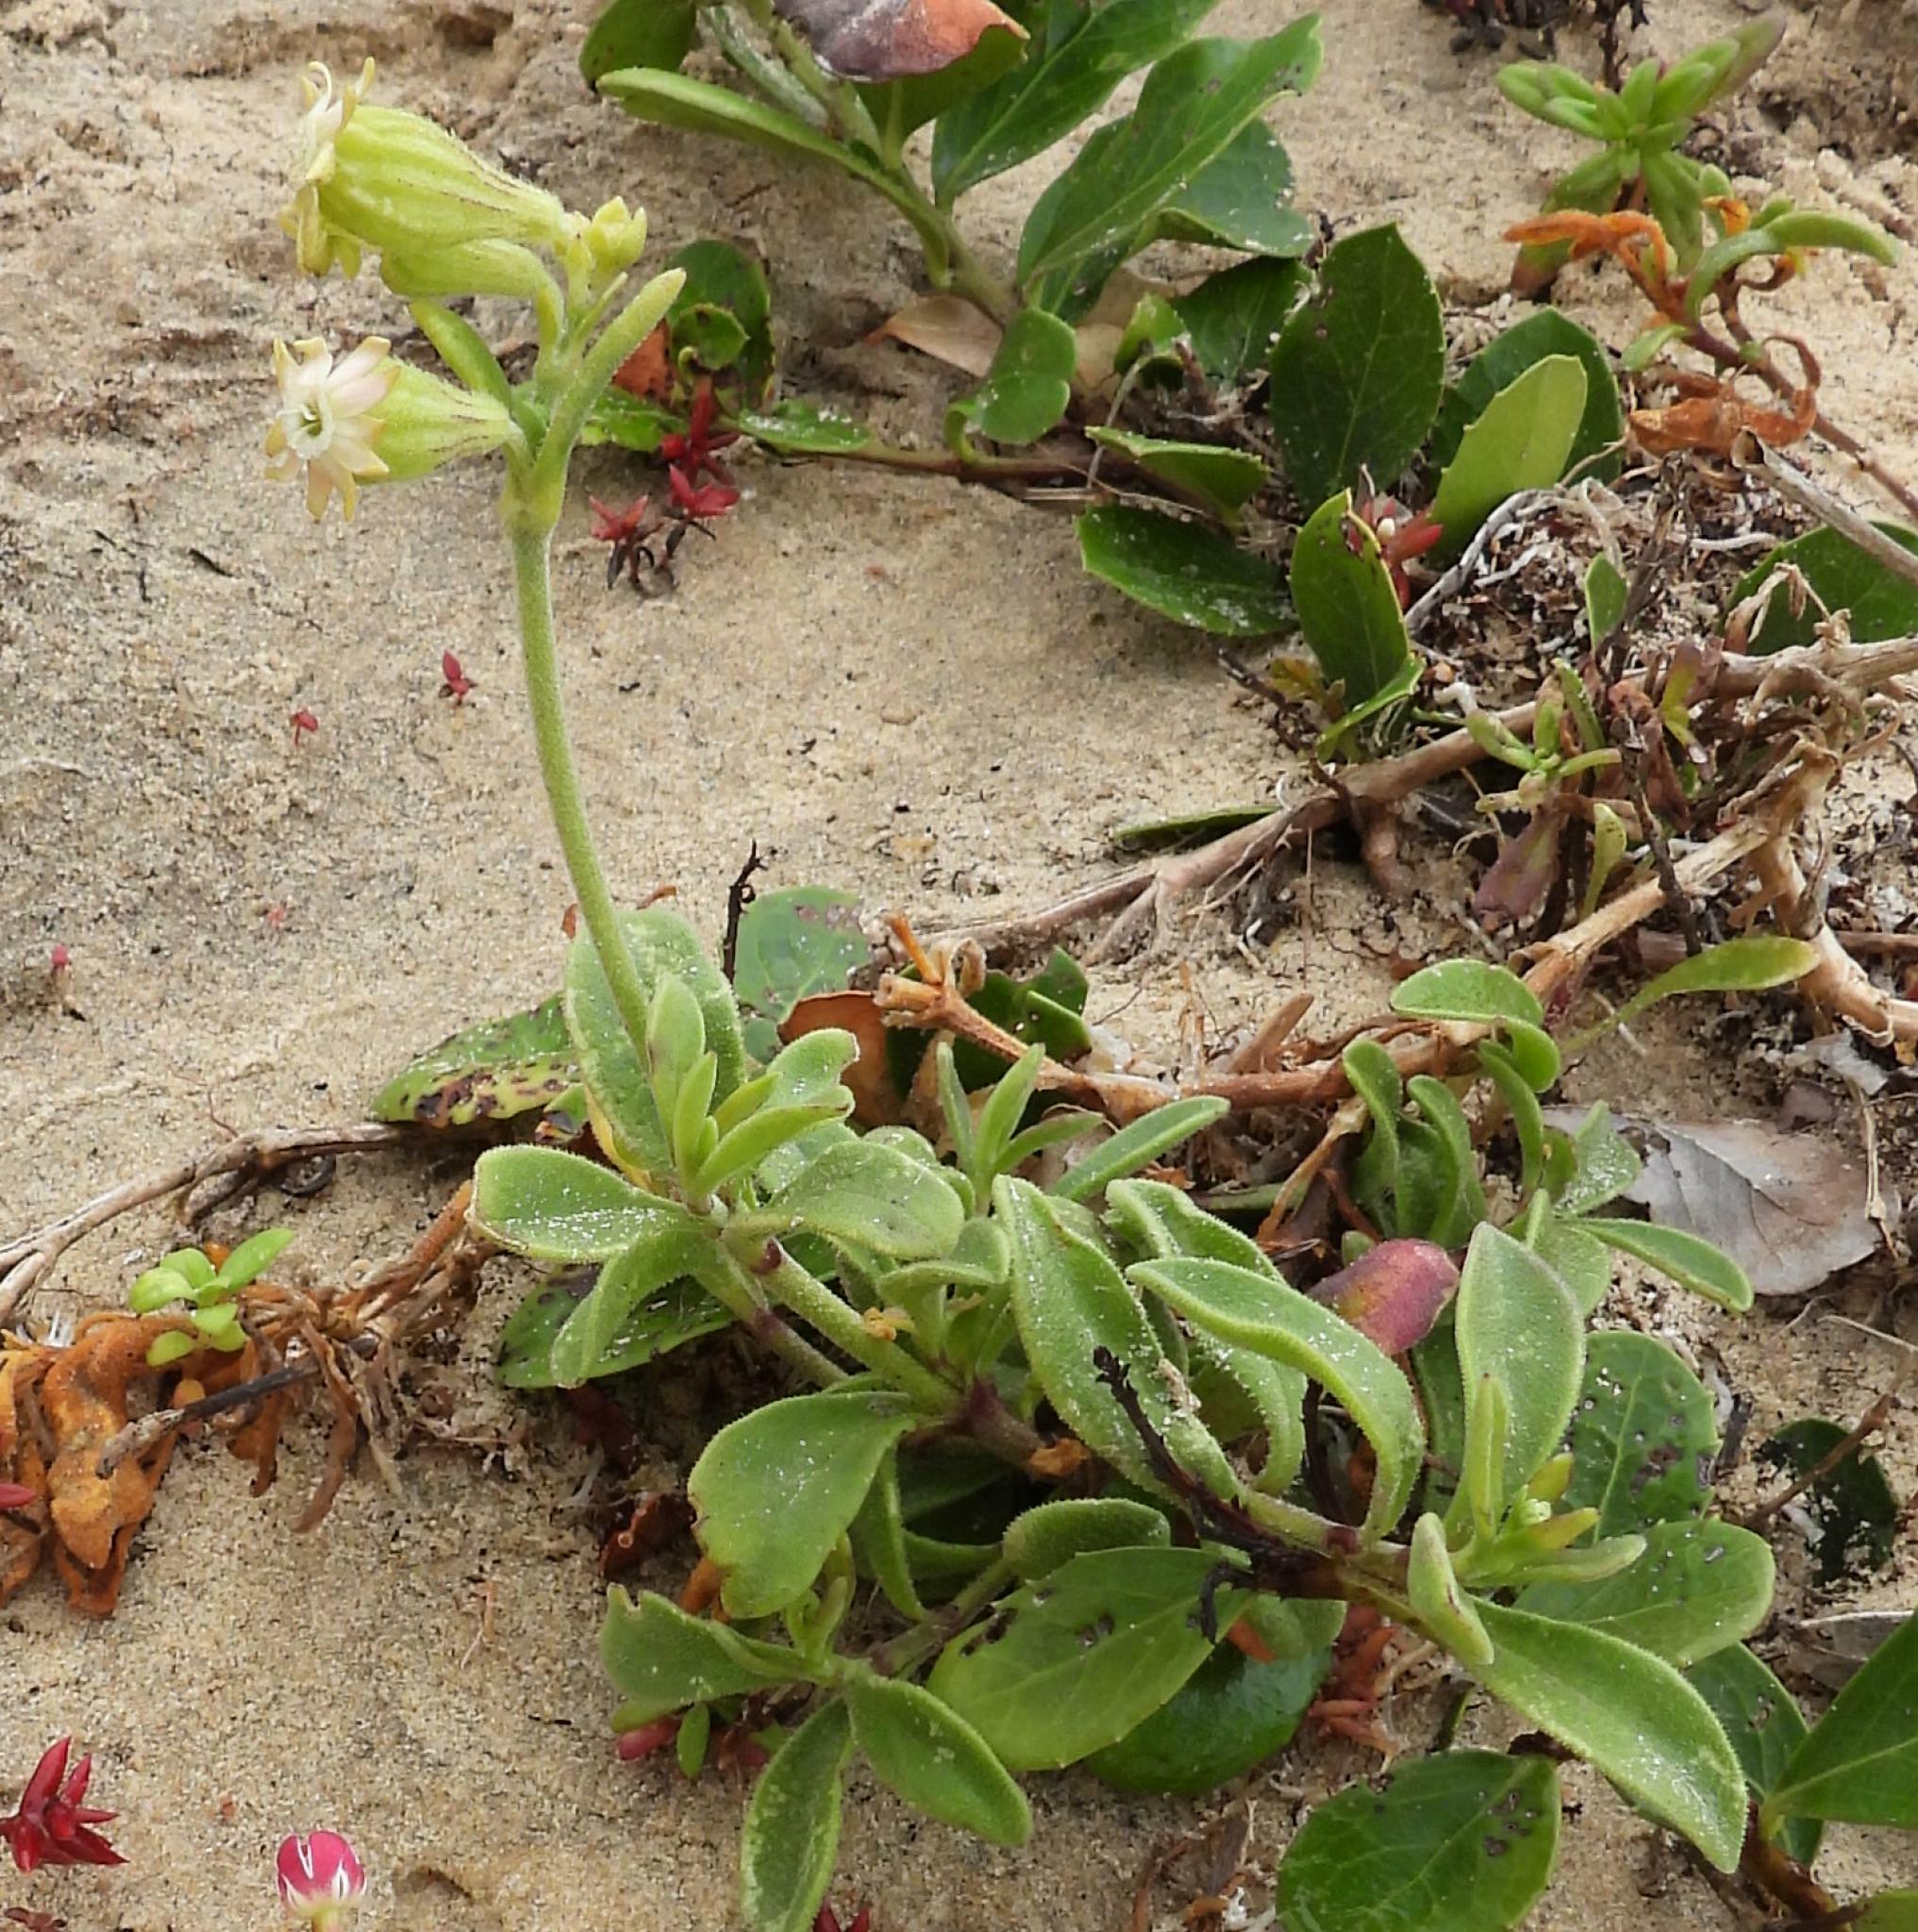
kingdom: Plantae
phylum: Tracheophyta
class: Magnoliopsida
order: Caryophyllales
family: Caryophyllaceae
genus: Silene
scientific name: Silene crassifolia
